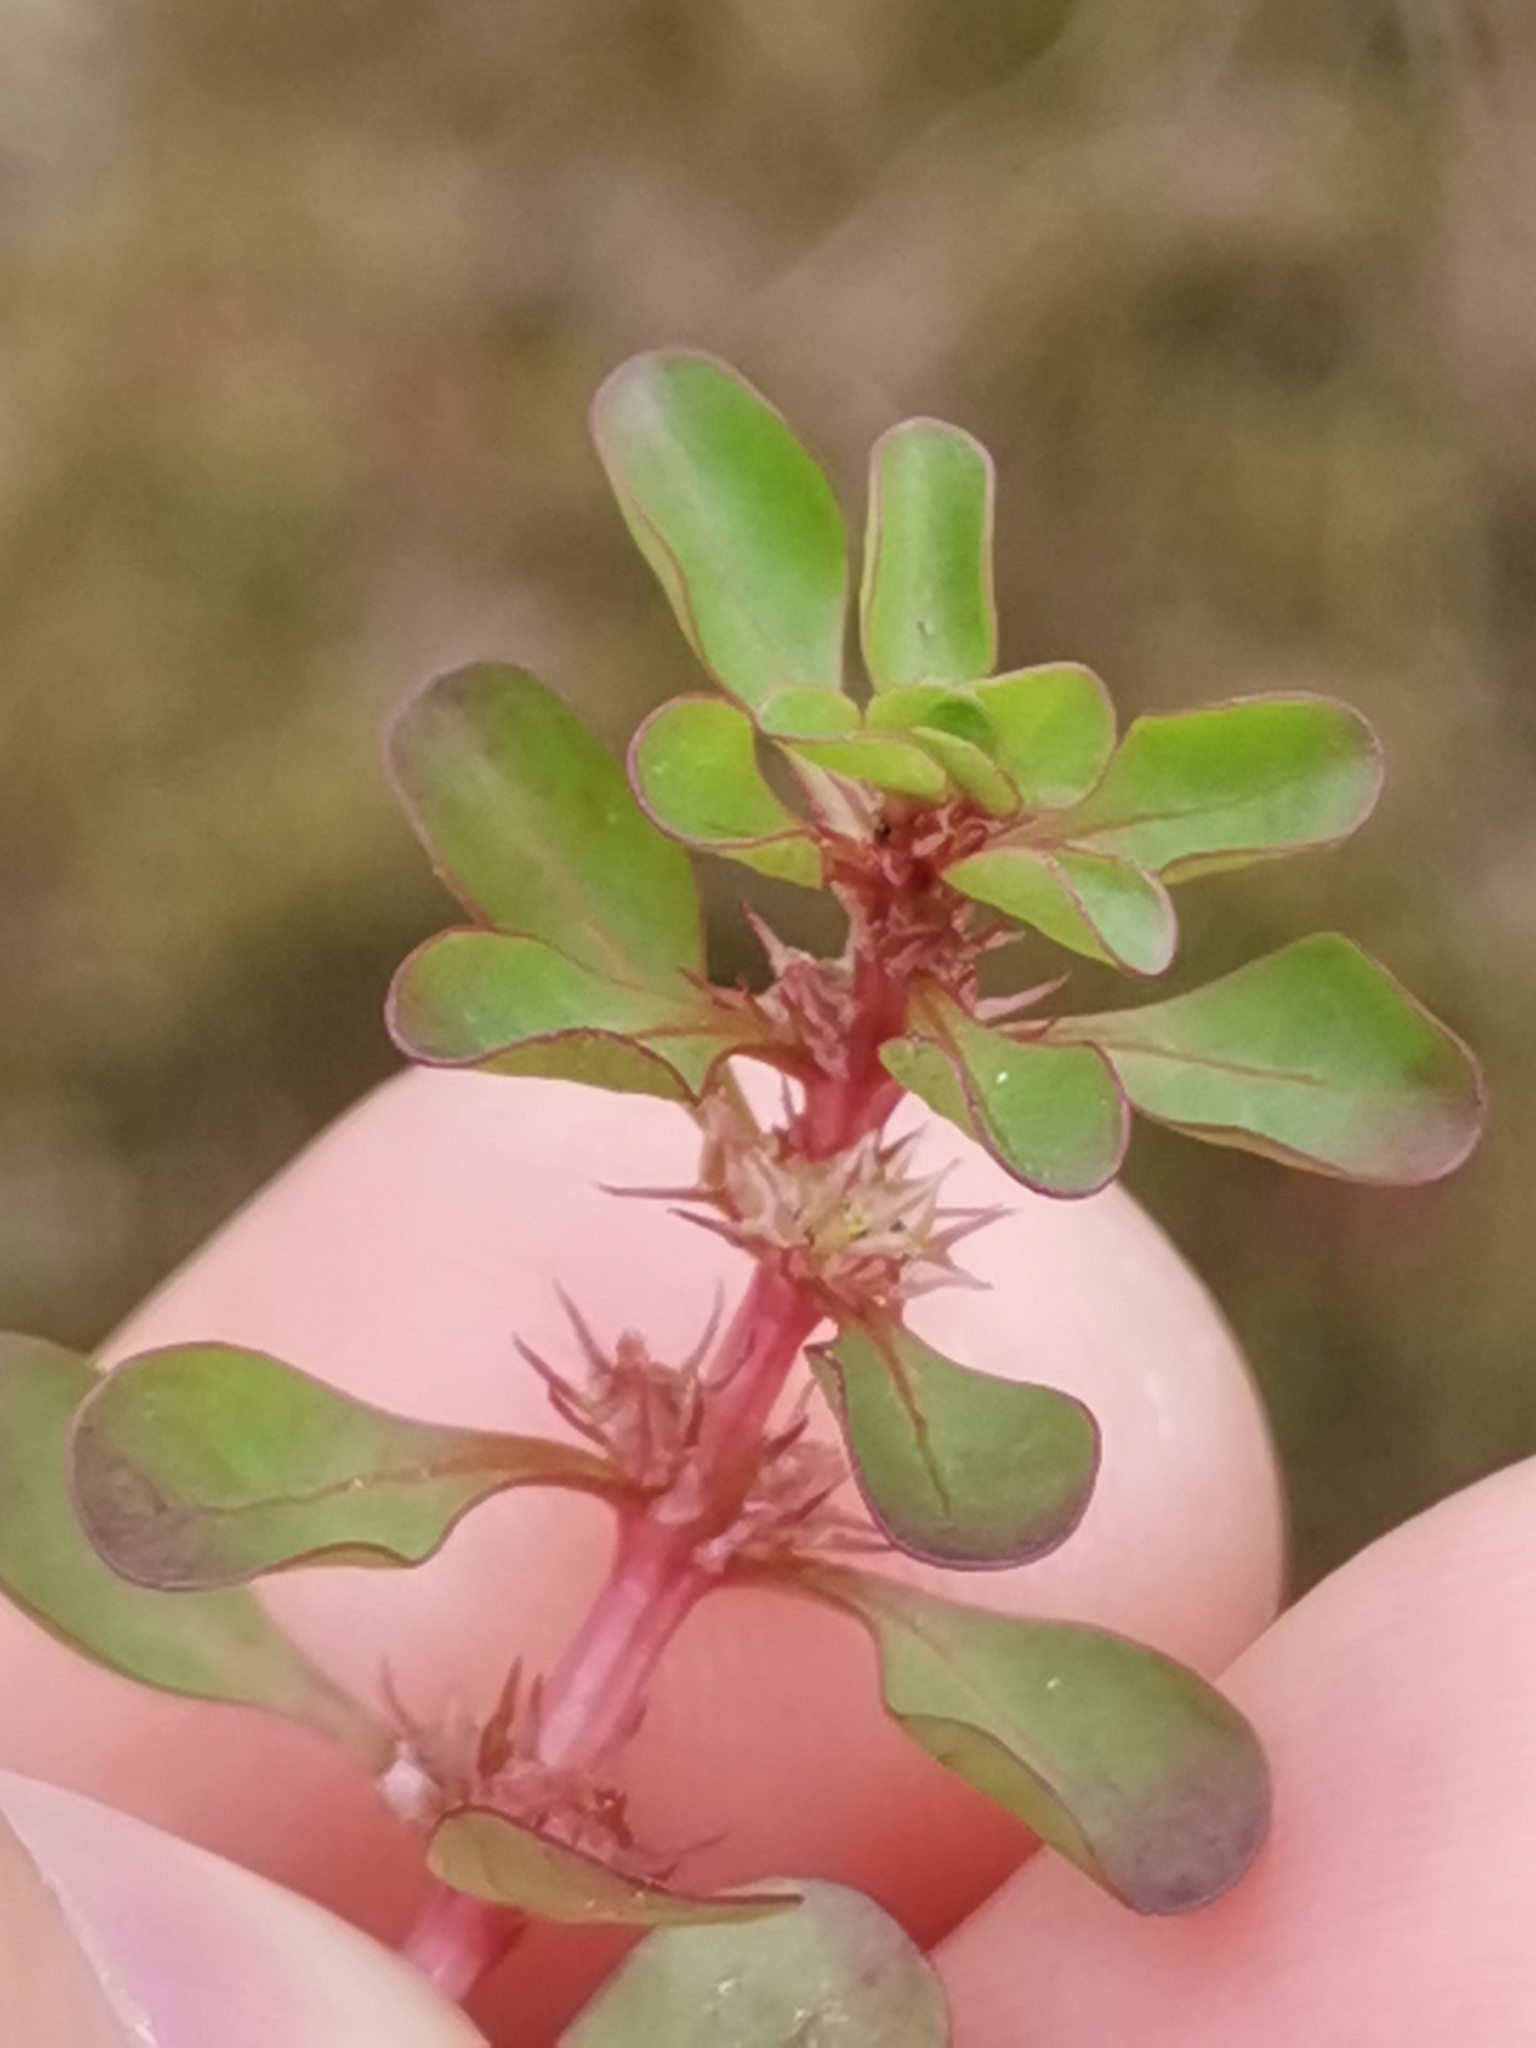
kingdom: Plantae
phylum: Tracheophyta
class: Magnoliopsida
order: Myrtales
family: Lythraceae
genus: Lythrum
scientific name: Lythrum portula
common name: Water purslane
